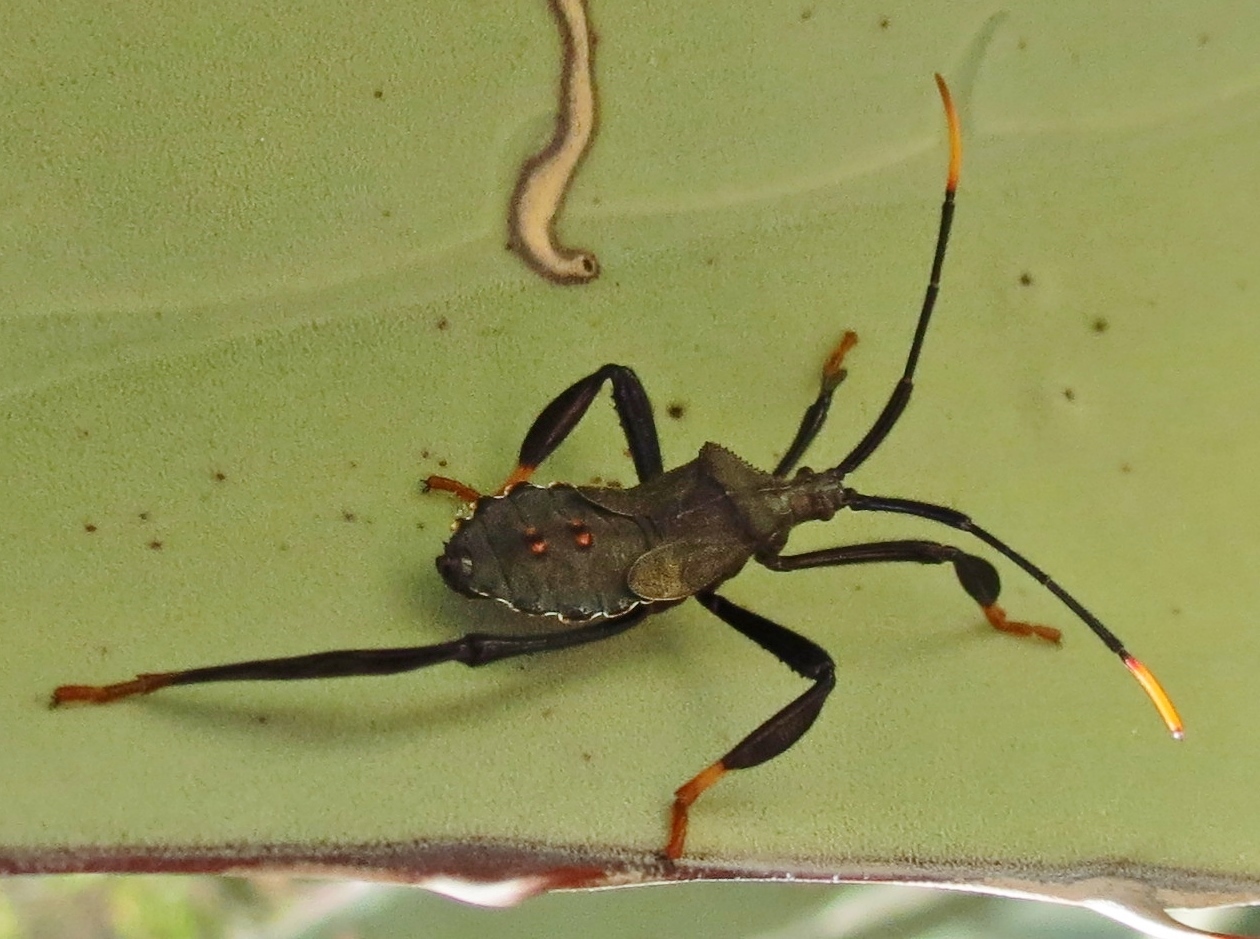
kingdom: Animalia
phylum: Arthropoda
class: Insecta
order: Hemiptera
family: Coreidae
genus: Acanthocephala
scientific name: Acanthocephala thomasi
